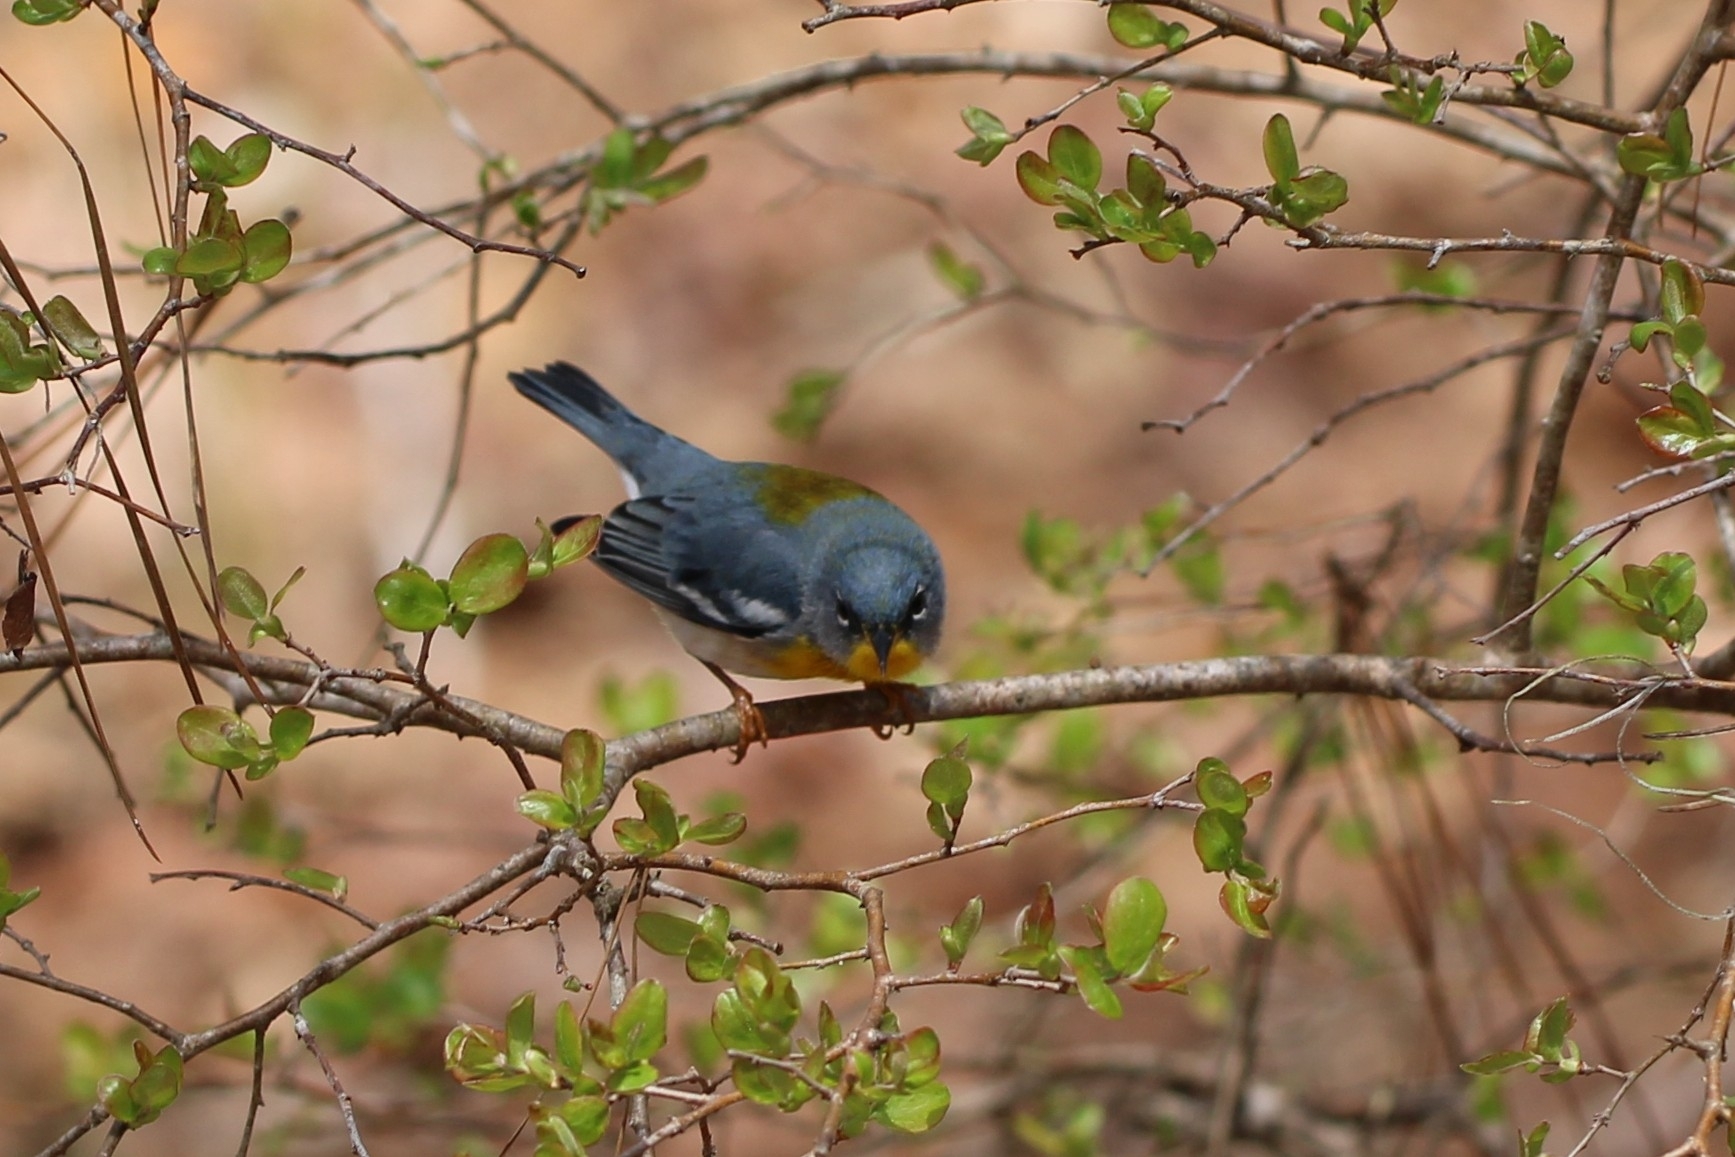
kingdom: Animalia
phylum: Chordata
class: Aves
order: Passeriformes
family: Parulidae
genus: Setophaga
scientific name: Setophaga americana
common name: Northern parula
